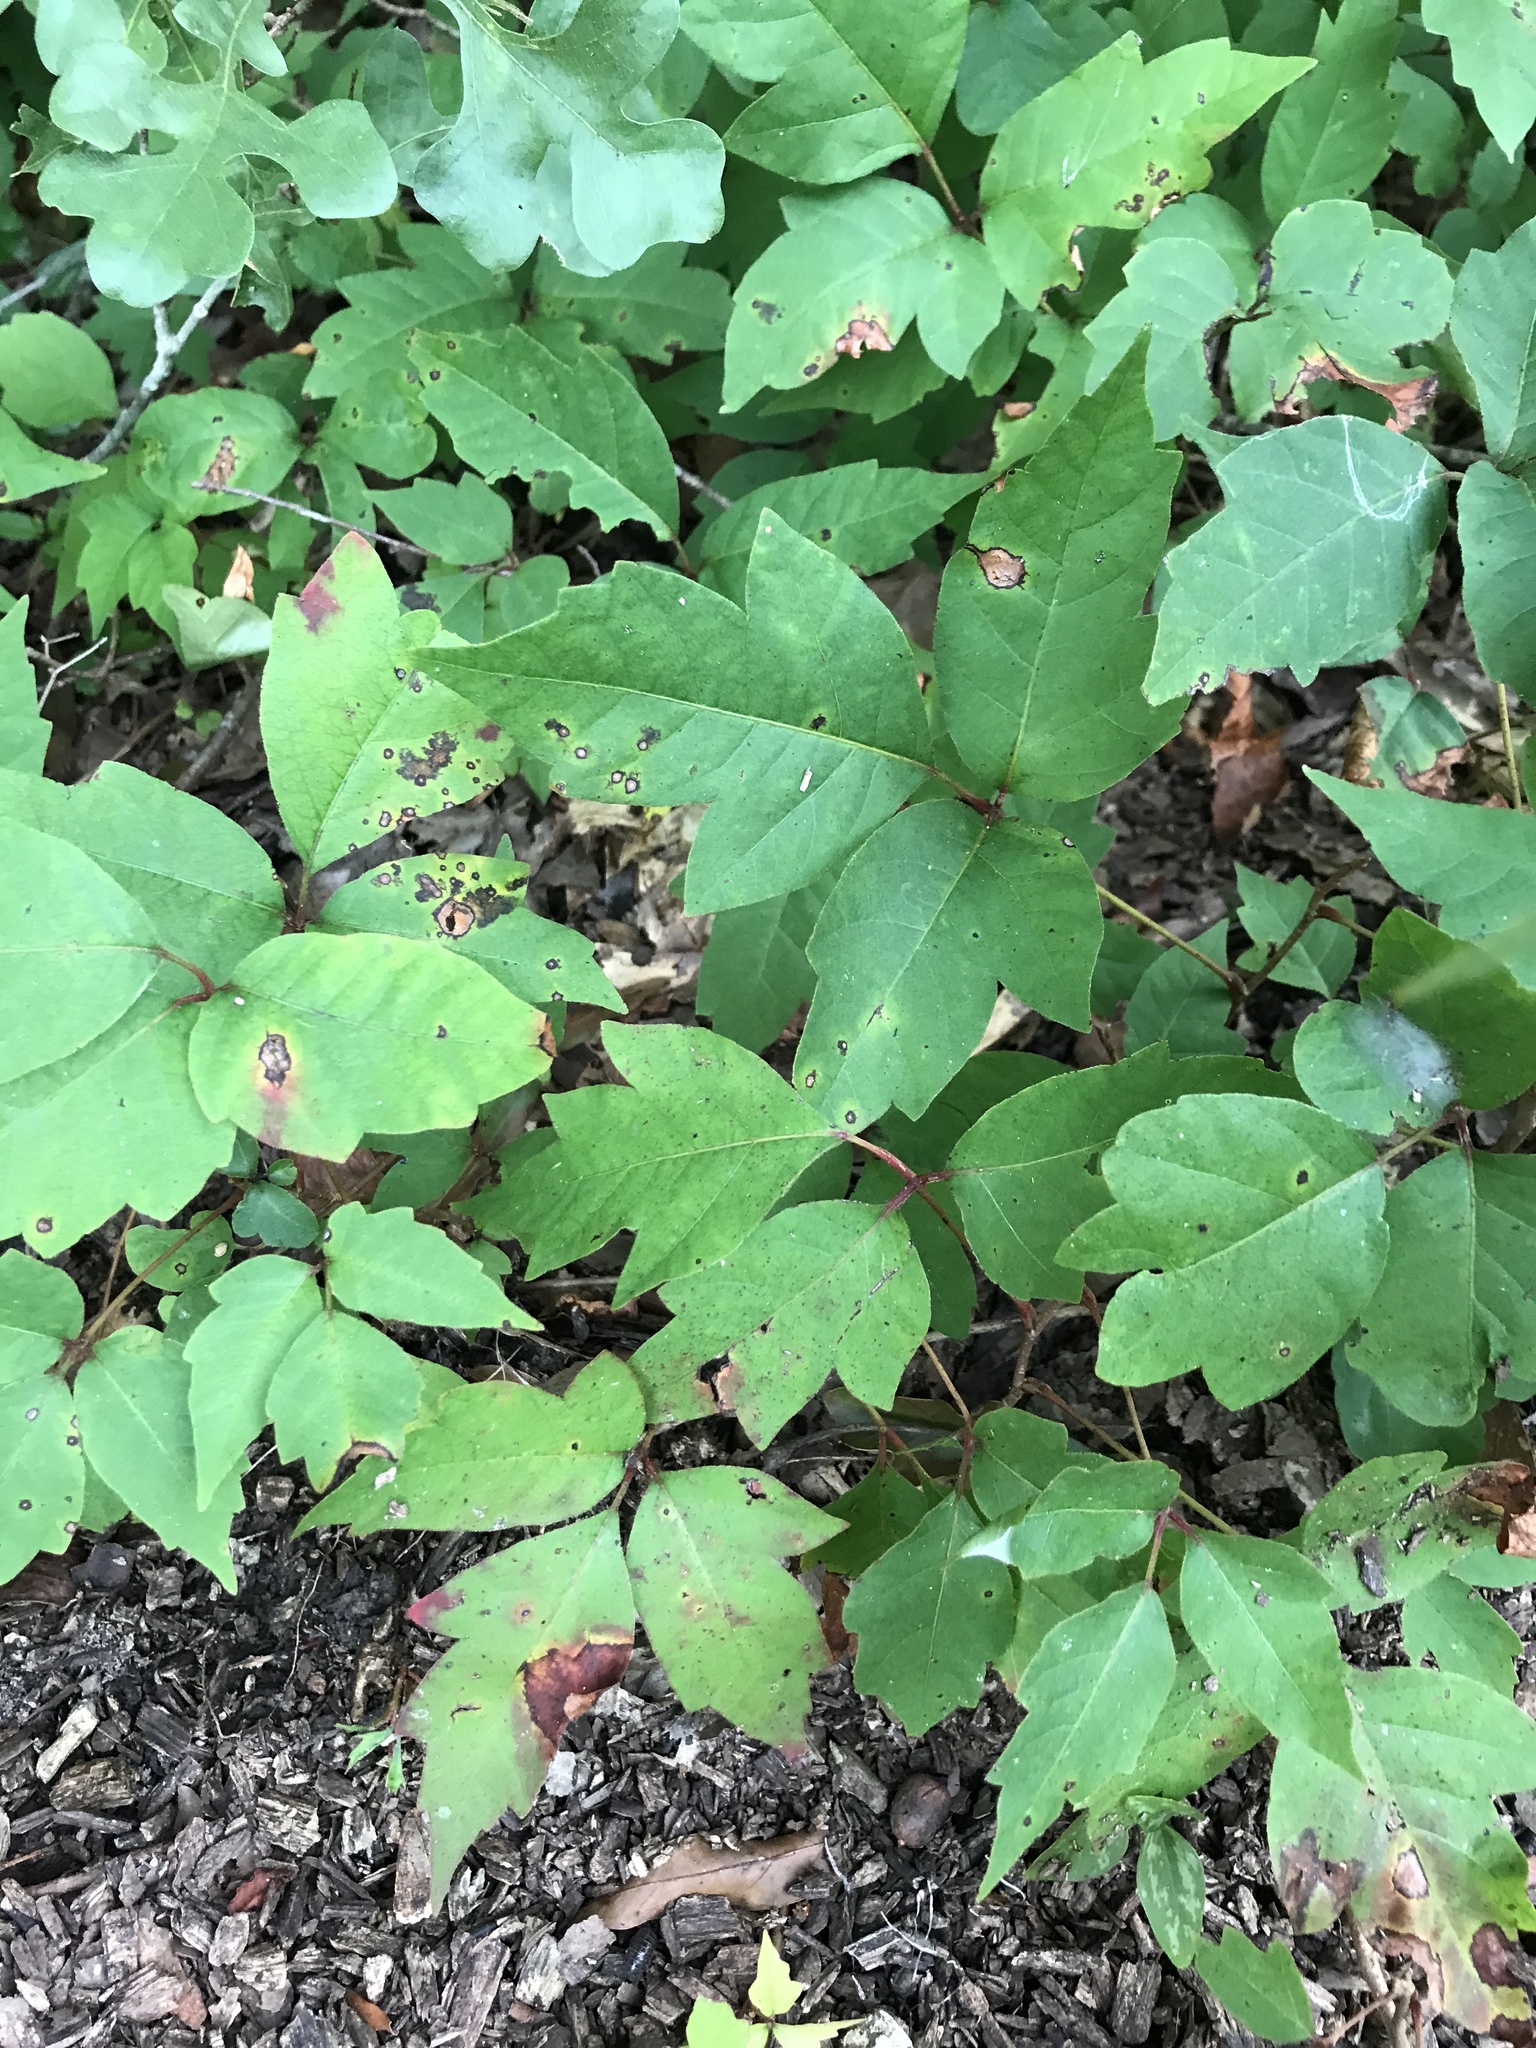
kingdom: Plantae
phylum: Tracheophyta
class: Magnoliopsida
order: Sapindales
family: Anacardiaceae
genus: Toxicodendron
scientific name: Toxicodendron radicans
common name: Poison ivy
